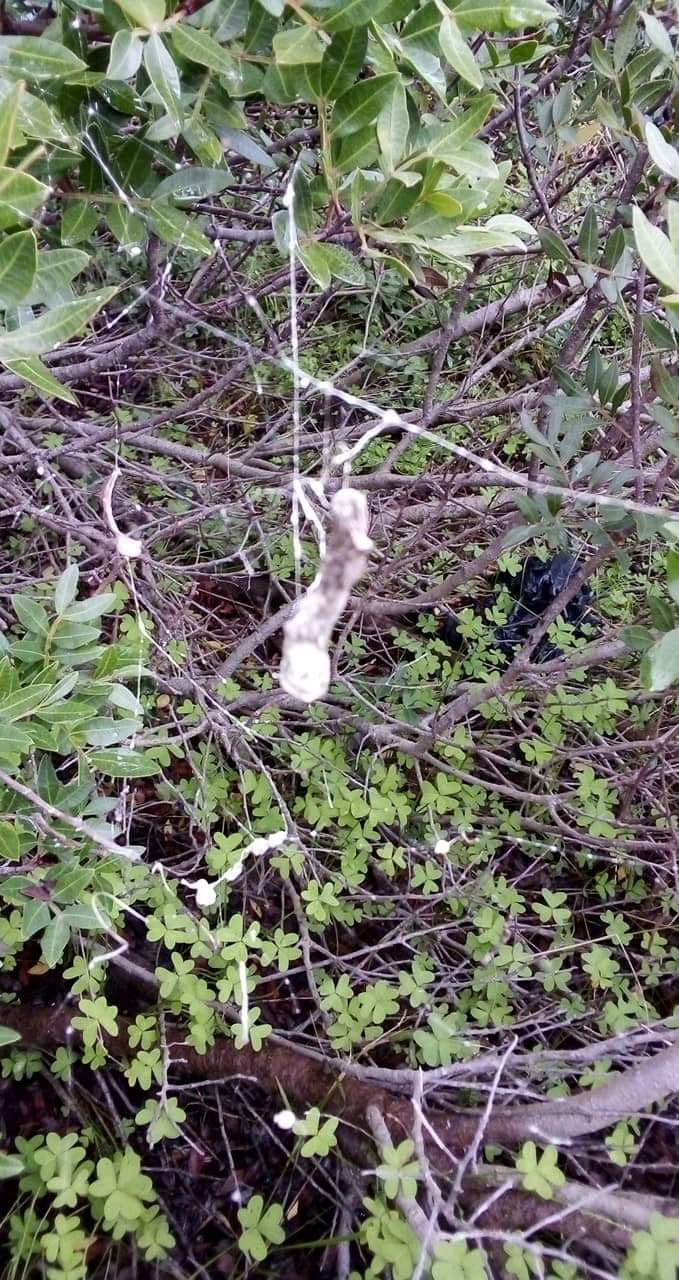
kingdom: Animalia
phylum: Arthropoda
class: Arachnida
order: Araneae
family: Araneidae
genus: Cyrtophora
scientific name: Cyrtophora citricola
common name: Orb weavers
